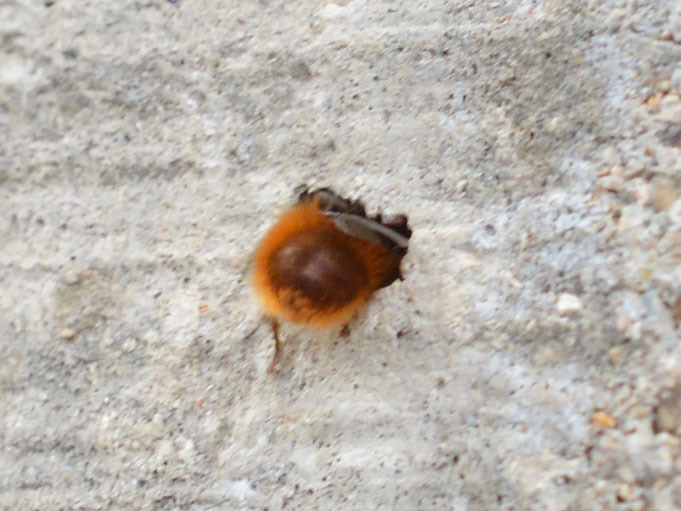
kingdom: Animalia
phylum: Arthropoda
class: Insecta
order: Hymenoptera
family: Megachilidae
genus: Osmia
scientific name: Osmia cornuta
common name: Mason bee
